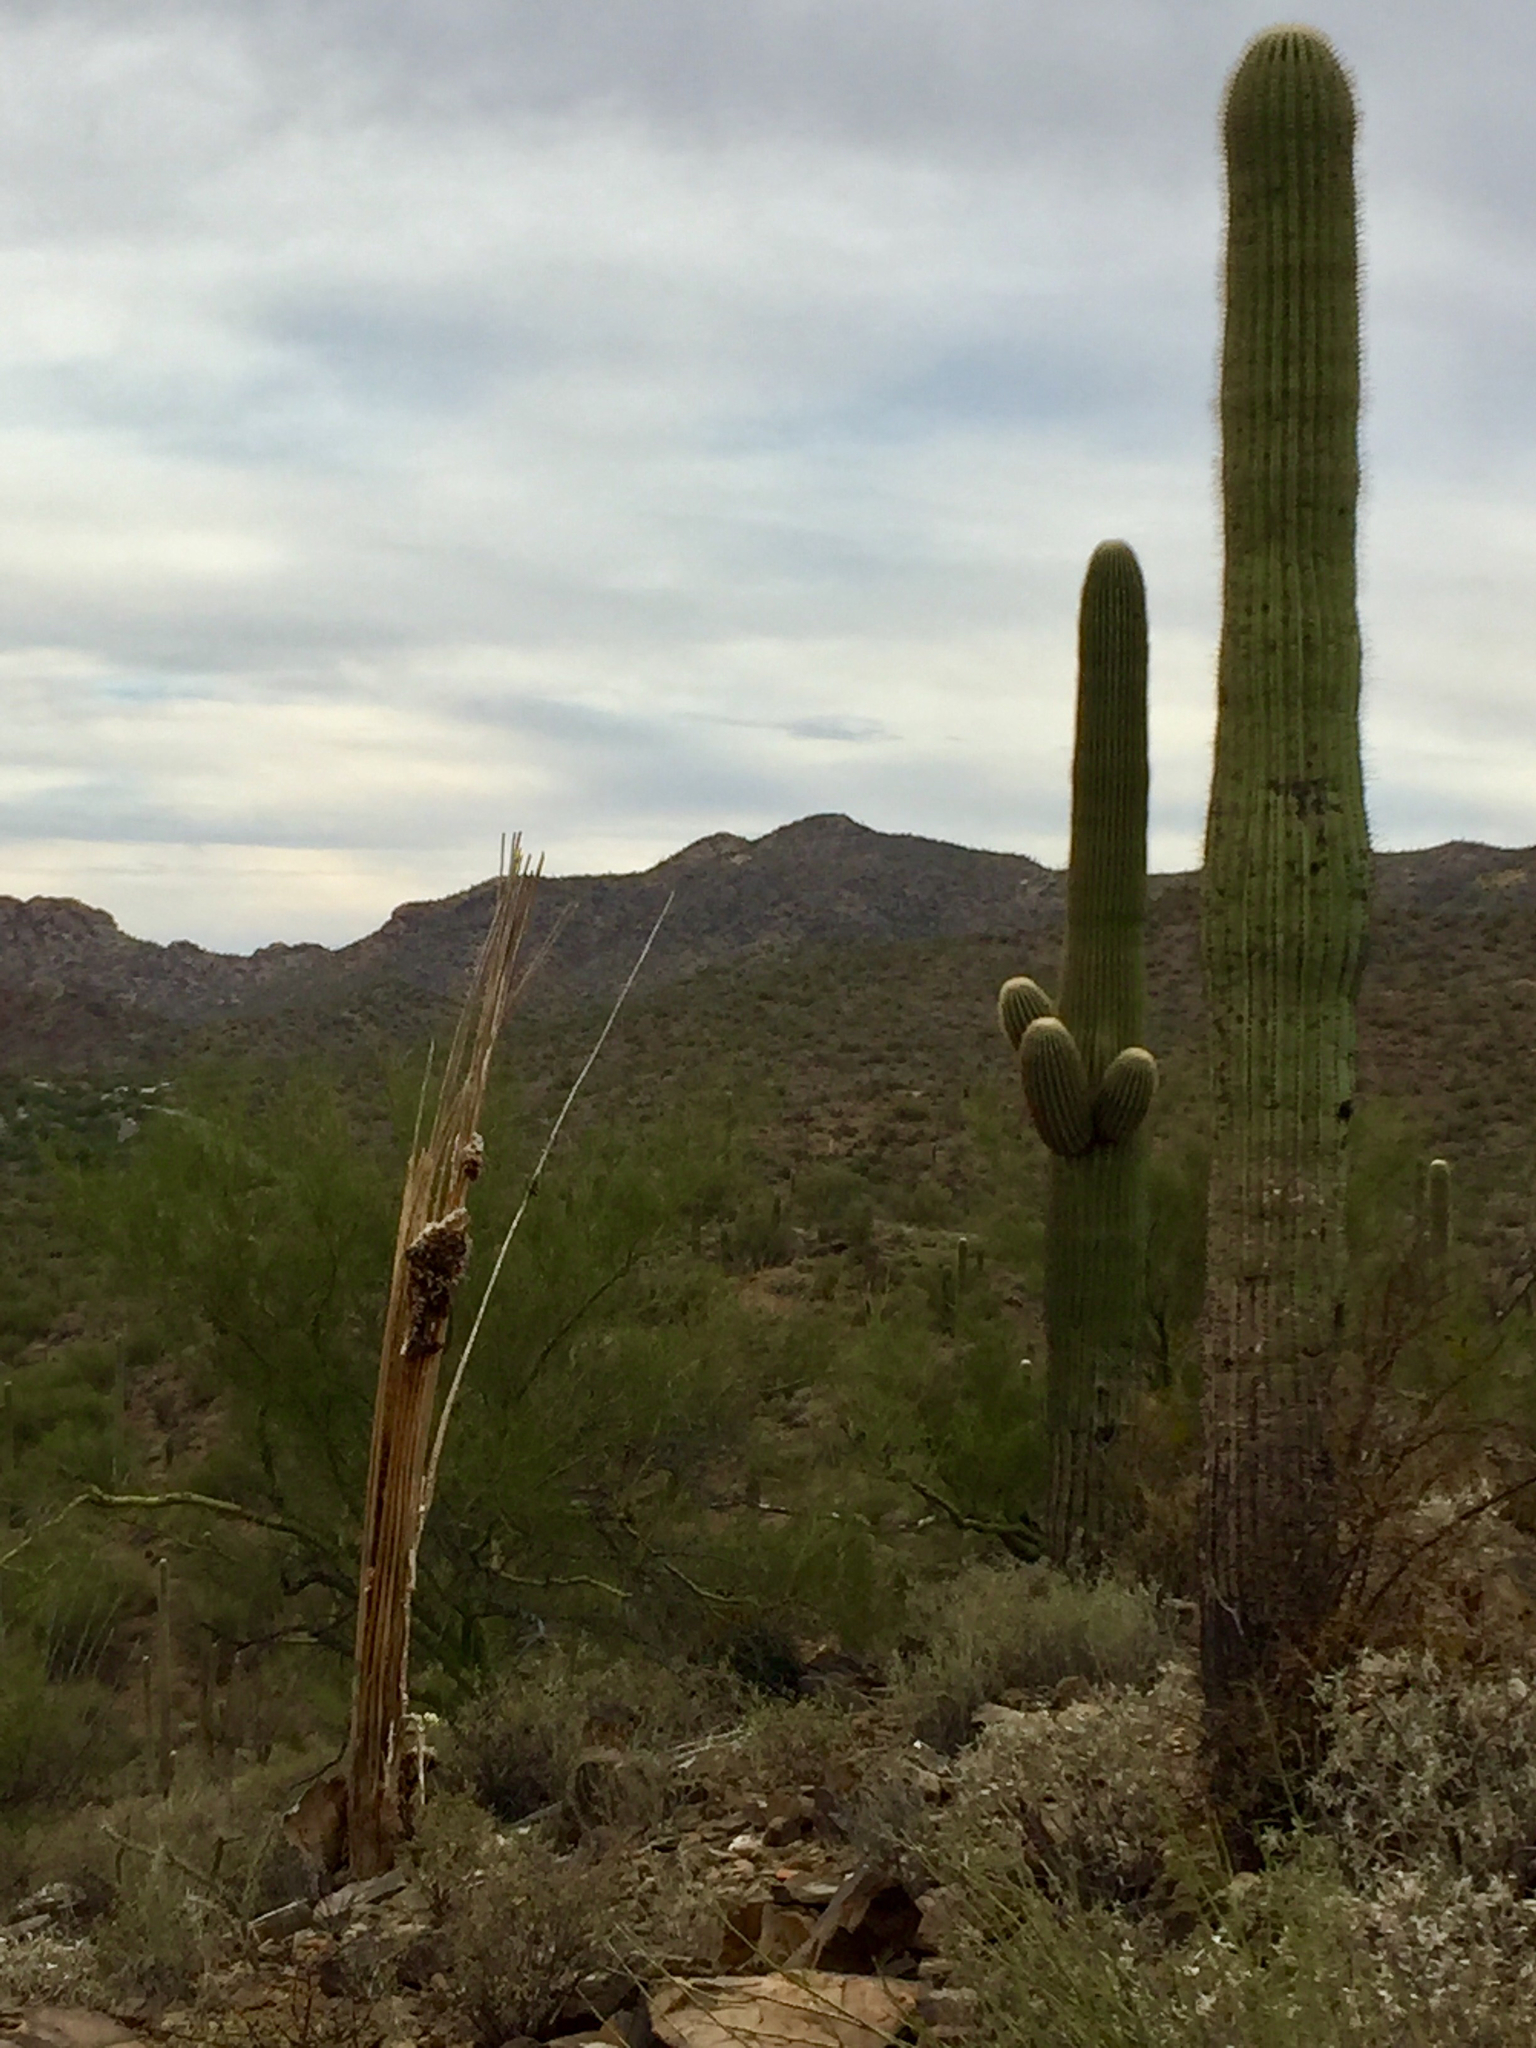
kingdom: Plantae
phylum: Tracheophyta
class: Magnoliopsida
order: Caryophyllales
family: Cactaceae
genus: Carnegiea
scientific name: Carnegiea gigantea
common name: Saguaro
